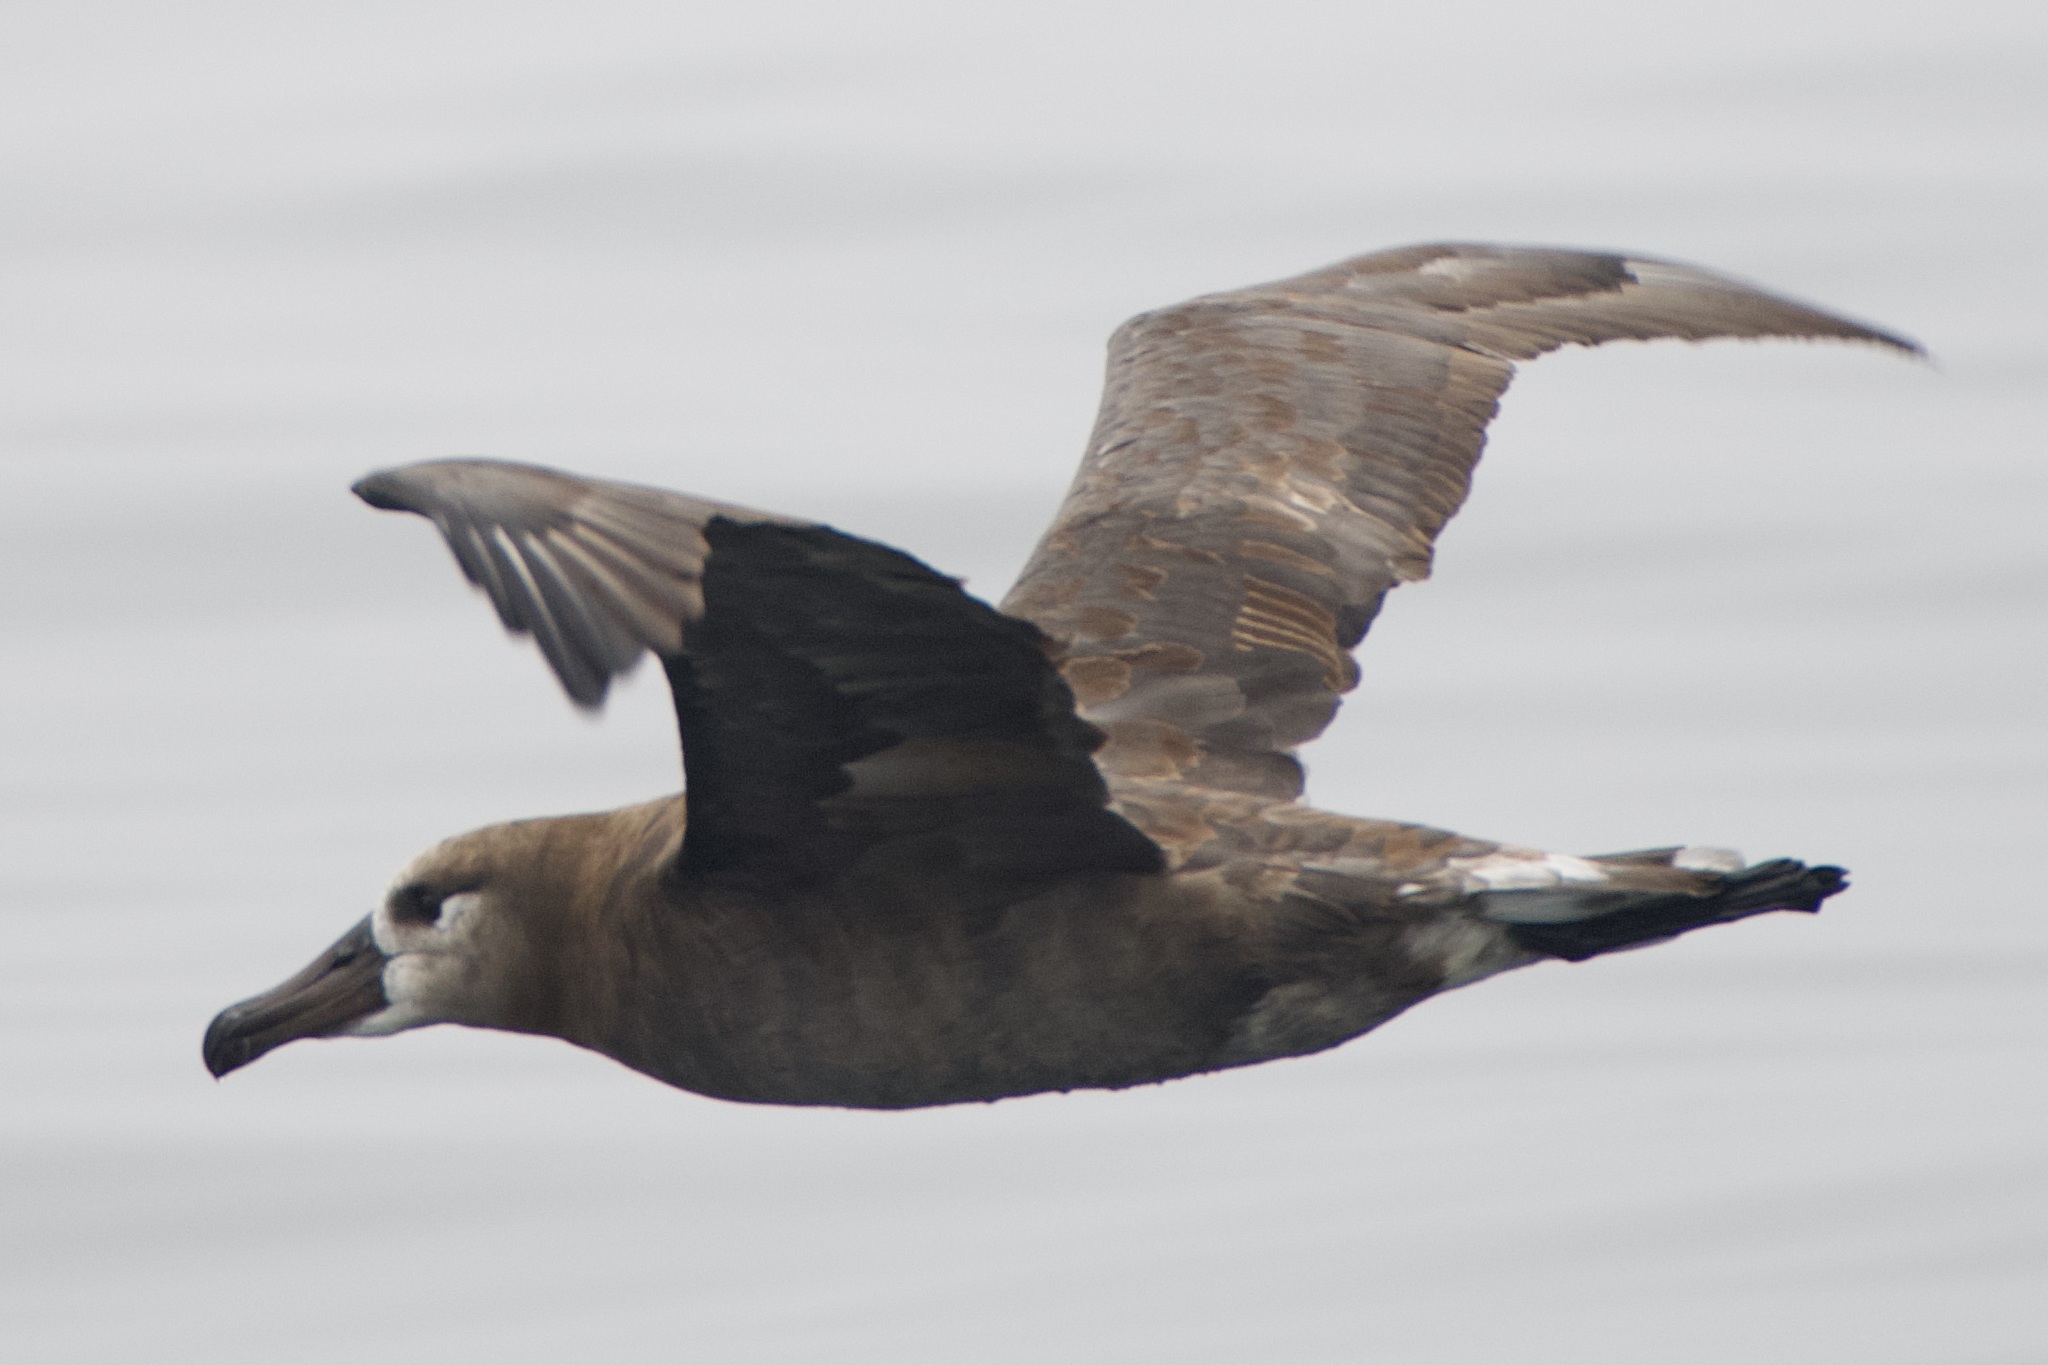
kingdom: Animalia
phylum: Chordata
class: Aves
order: Procellariiformes
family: Diomedeidae
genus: Phoebastria
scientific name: Phoebastria nigripes
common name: Black-footed albatross
